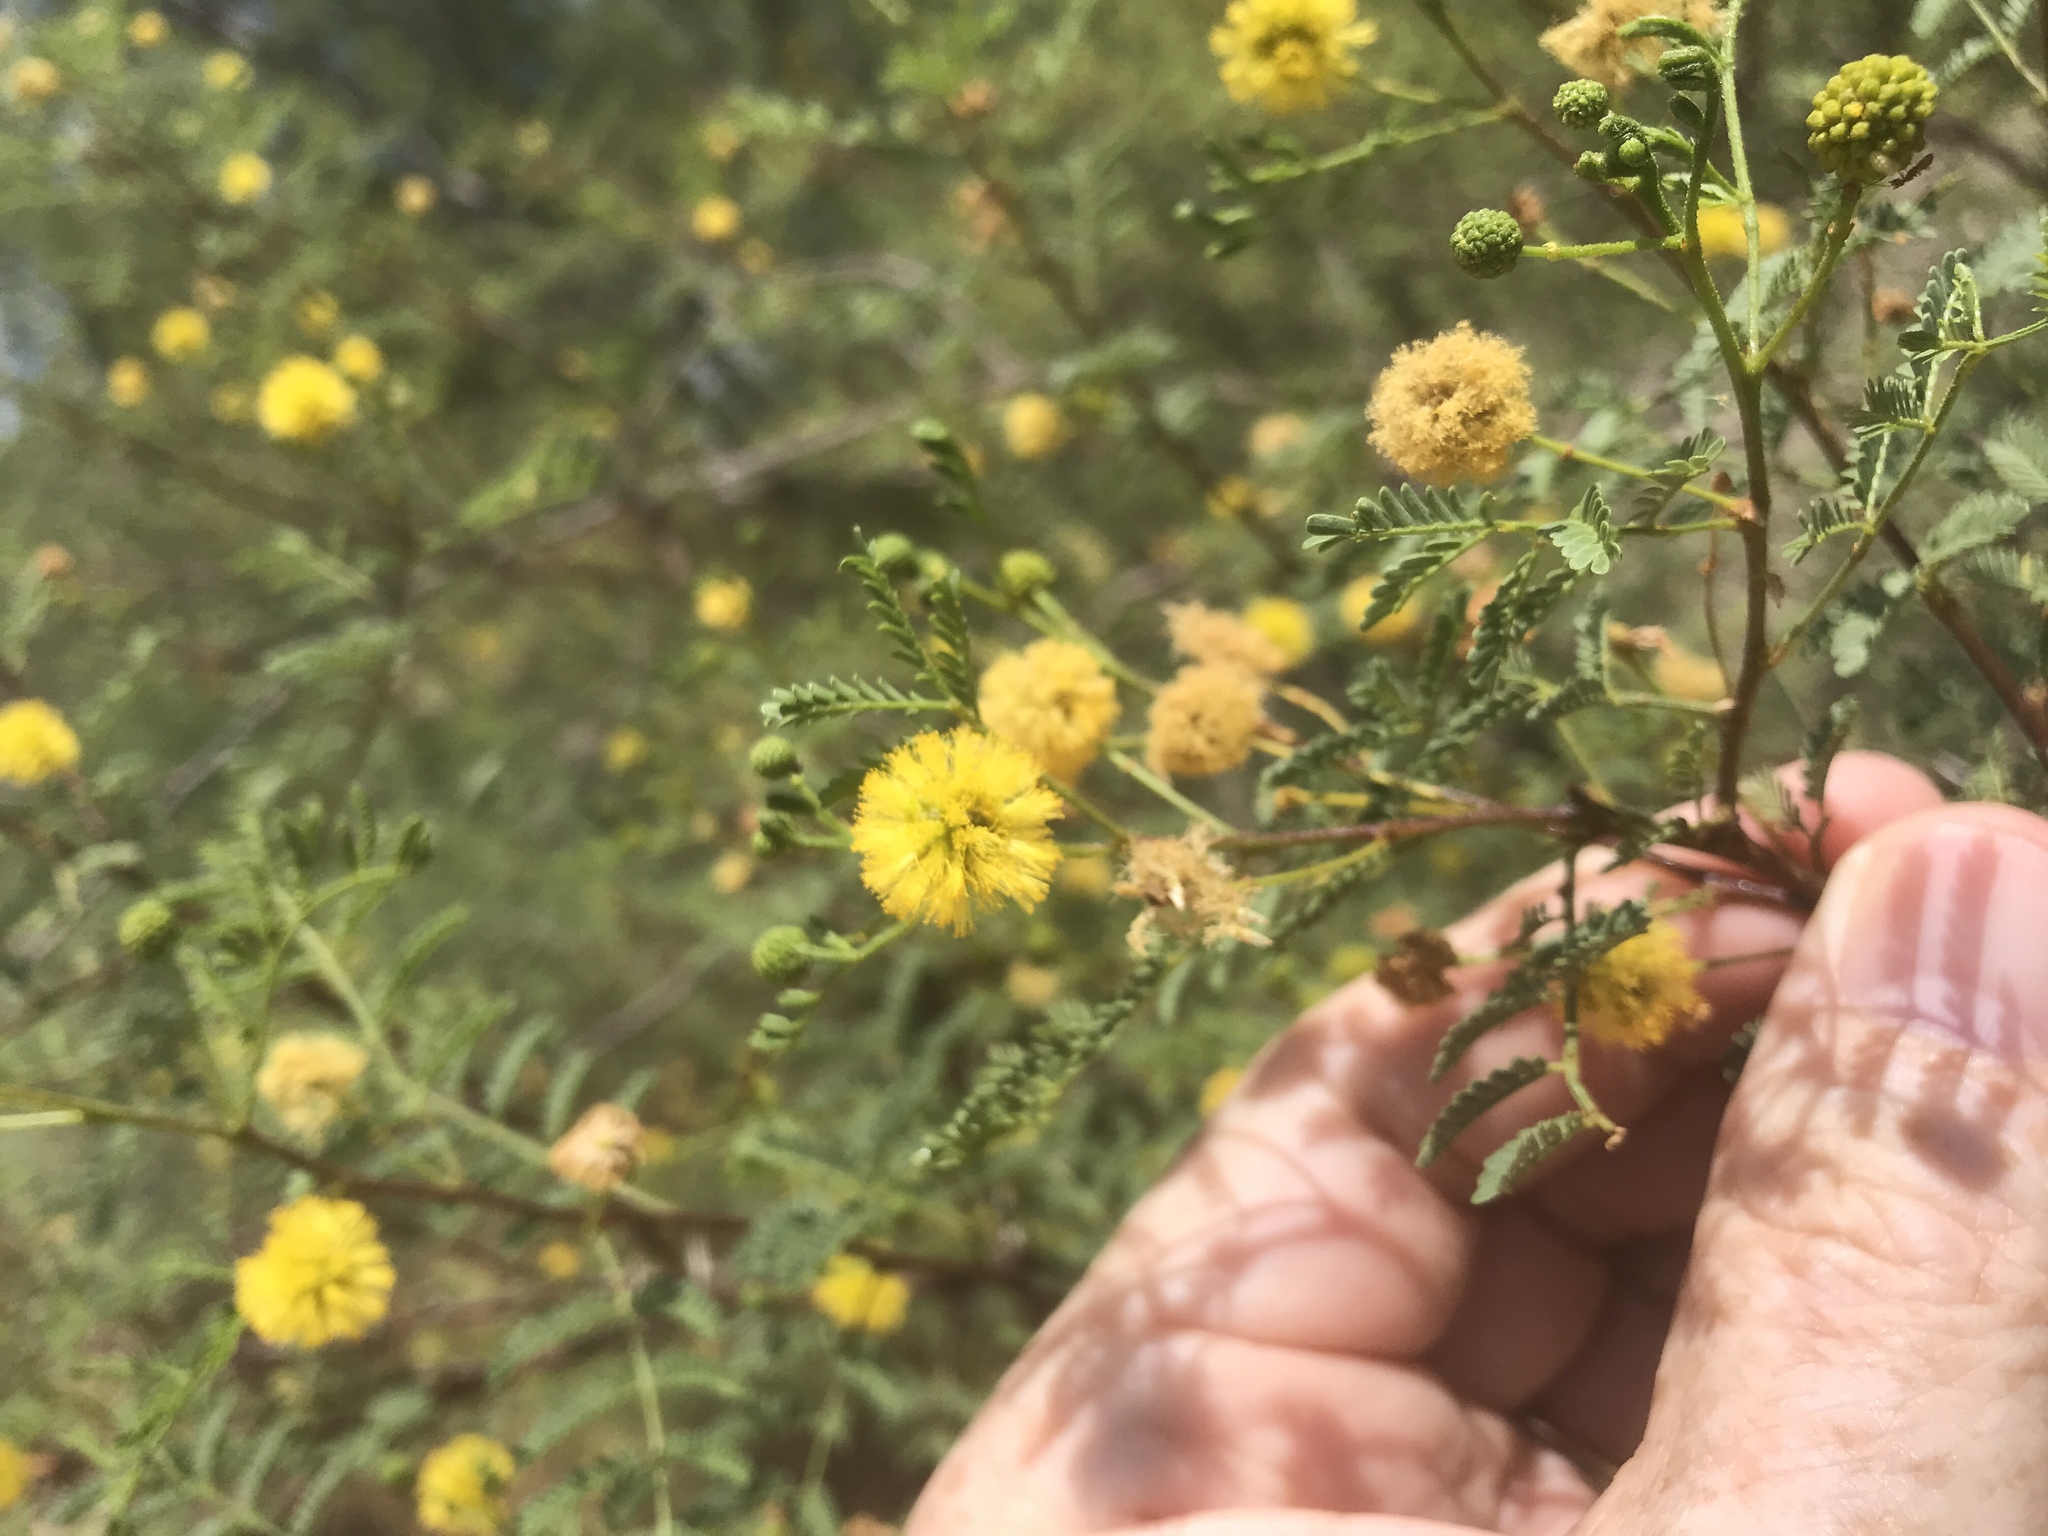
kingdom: Plantae
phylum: Tracheophyta
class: Magnoliopsida
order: Fabales
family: Fabaceae
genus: Vachellia
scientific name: Vachellia farnesiana
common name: Sweet acacia
